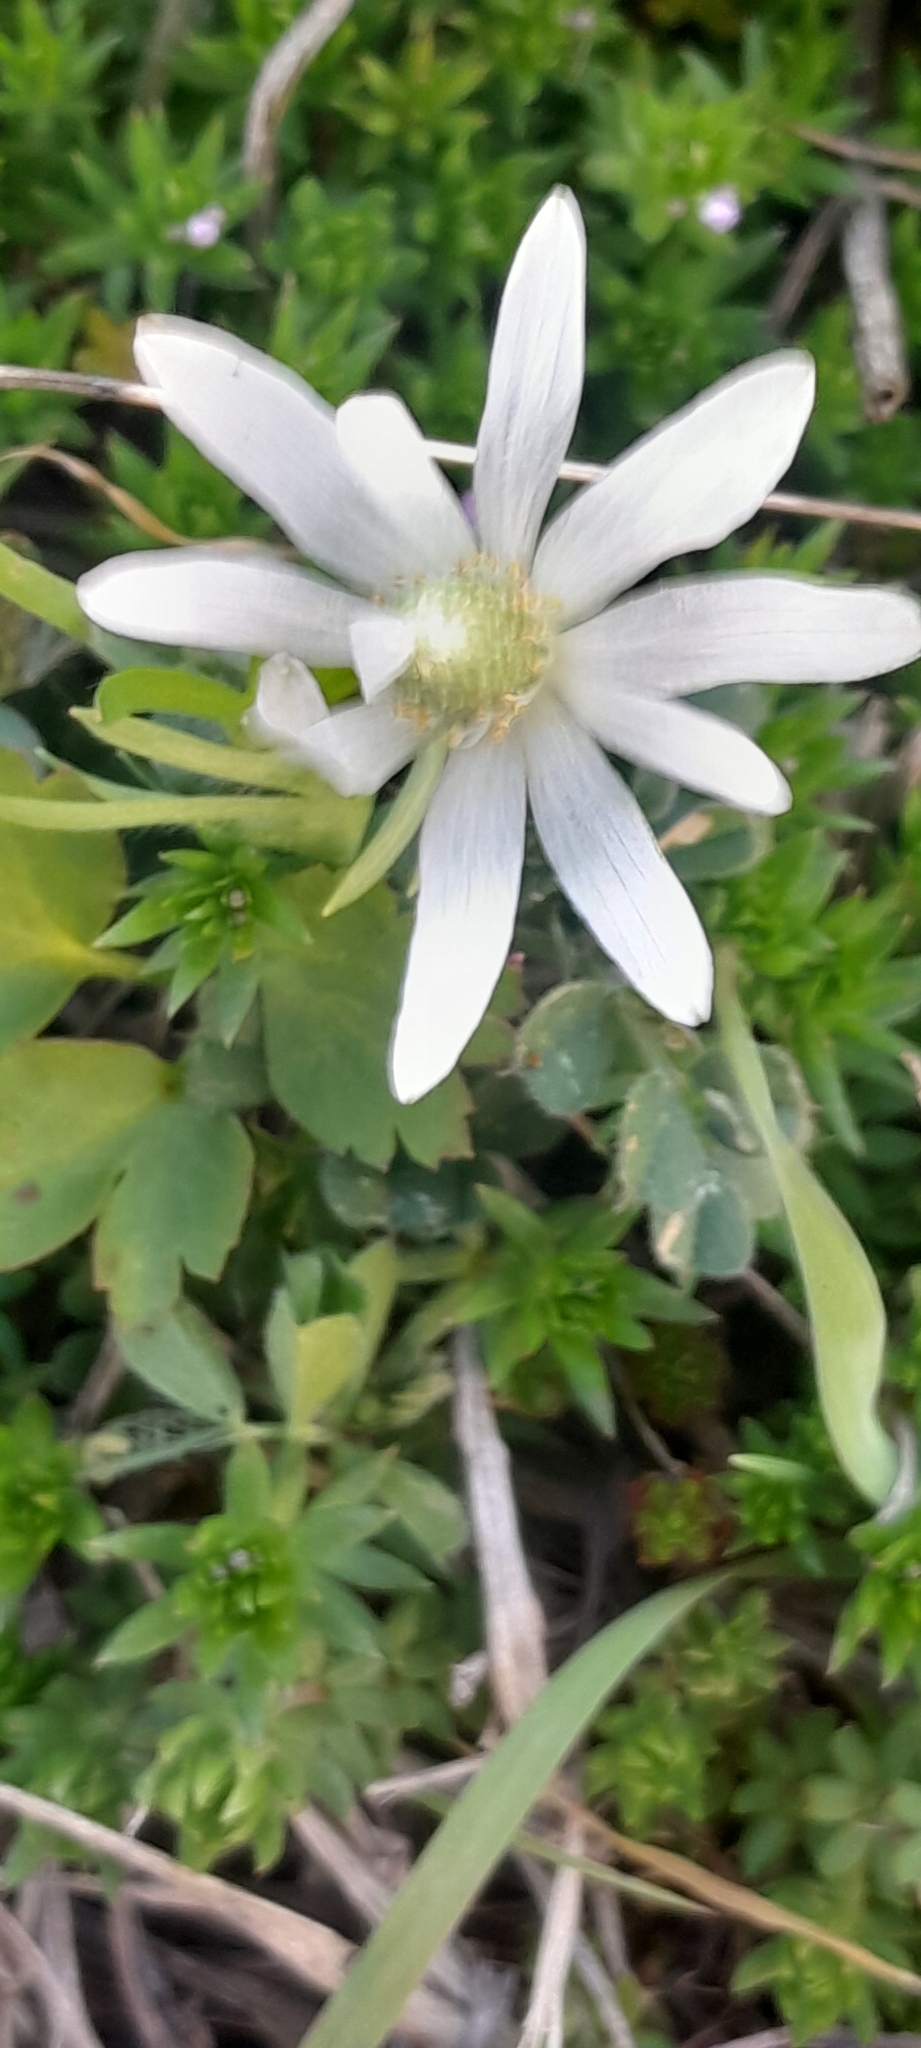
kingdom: Plantae
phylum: Tracheophyta
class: Magnoliopsida
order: Ranunculales
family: Ranunculaceae
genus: Anemone
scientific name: Anemone berlandieri
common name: Ten-petal anemone
